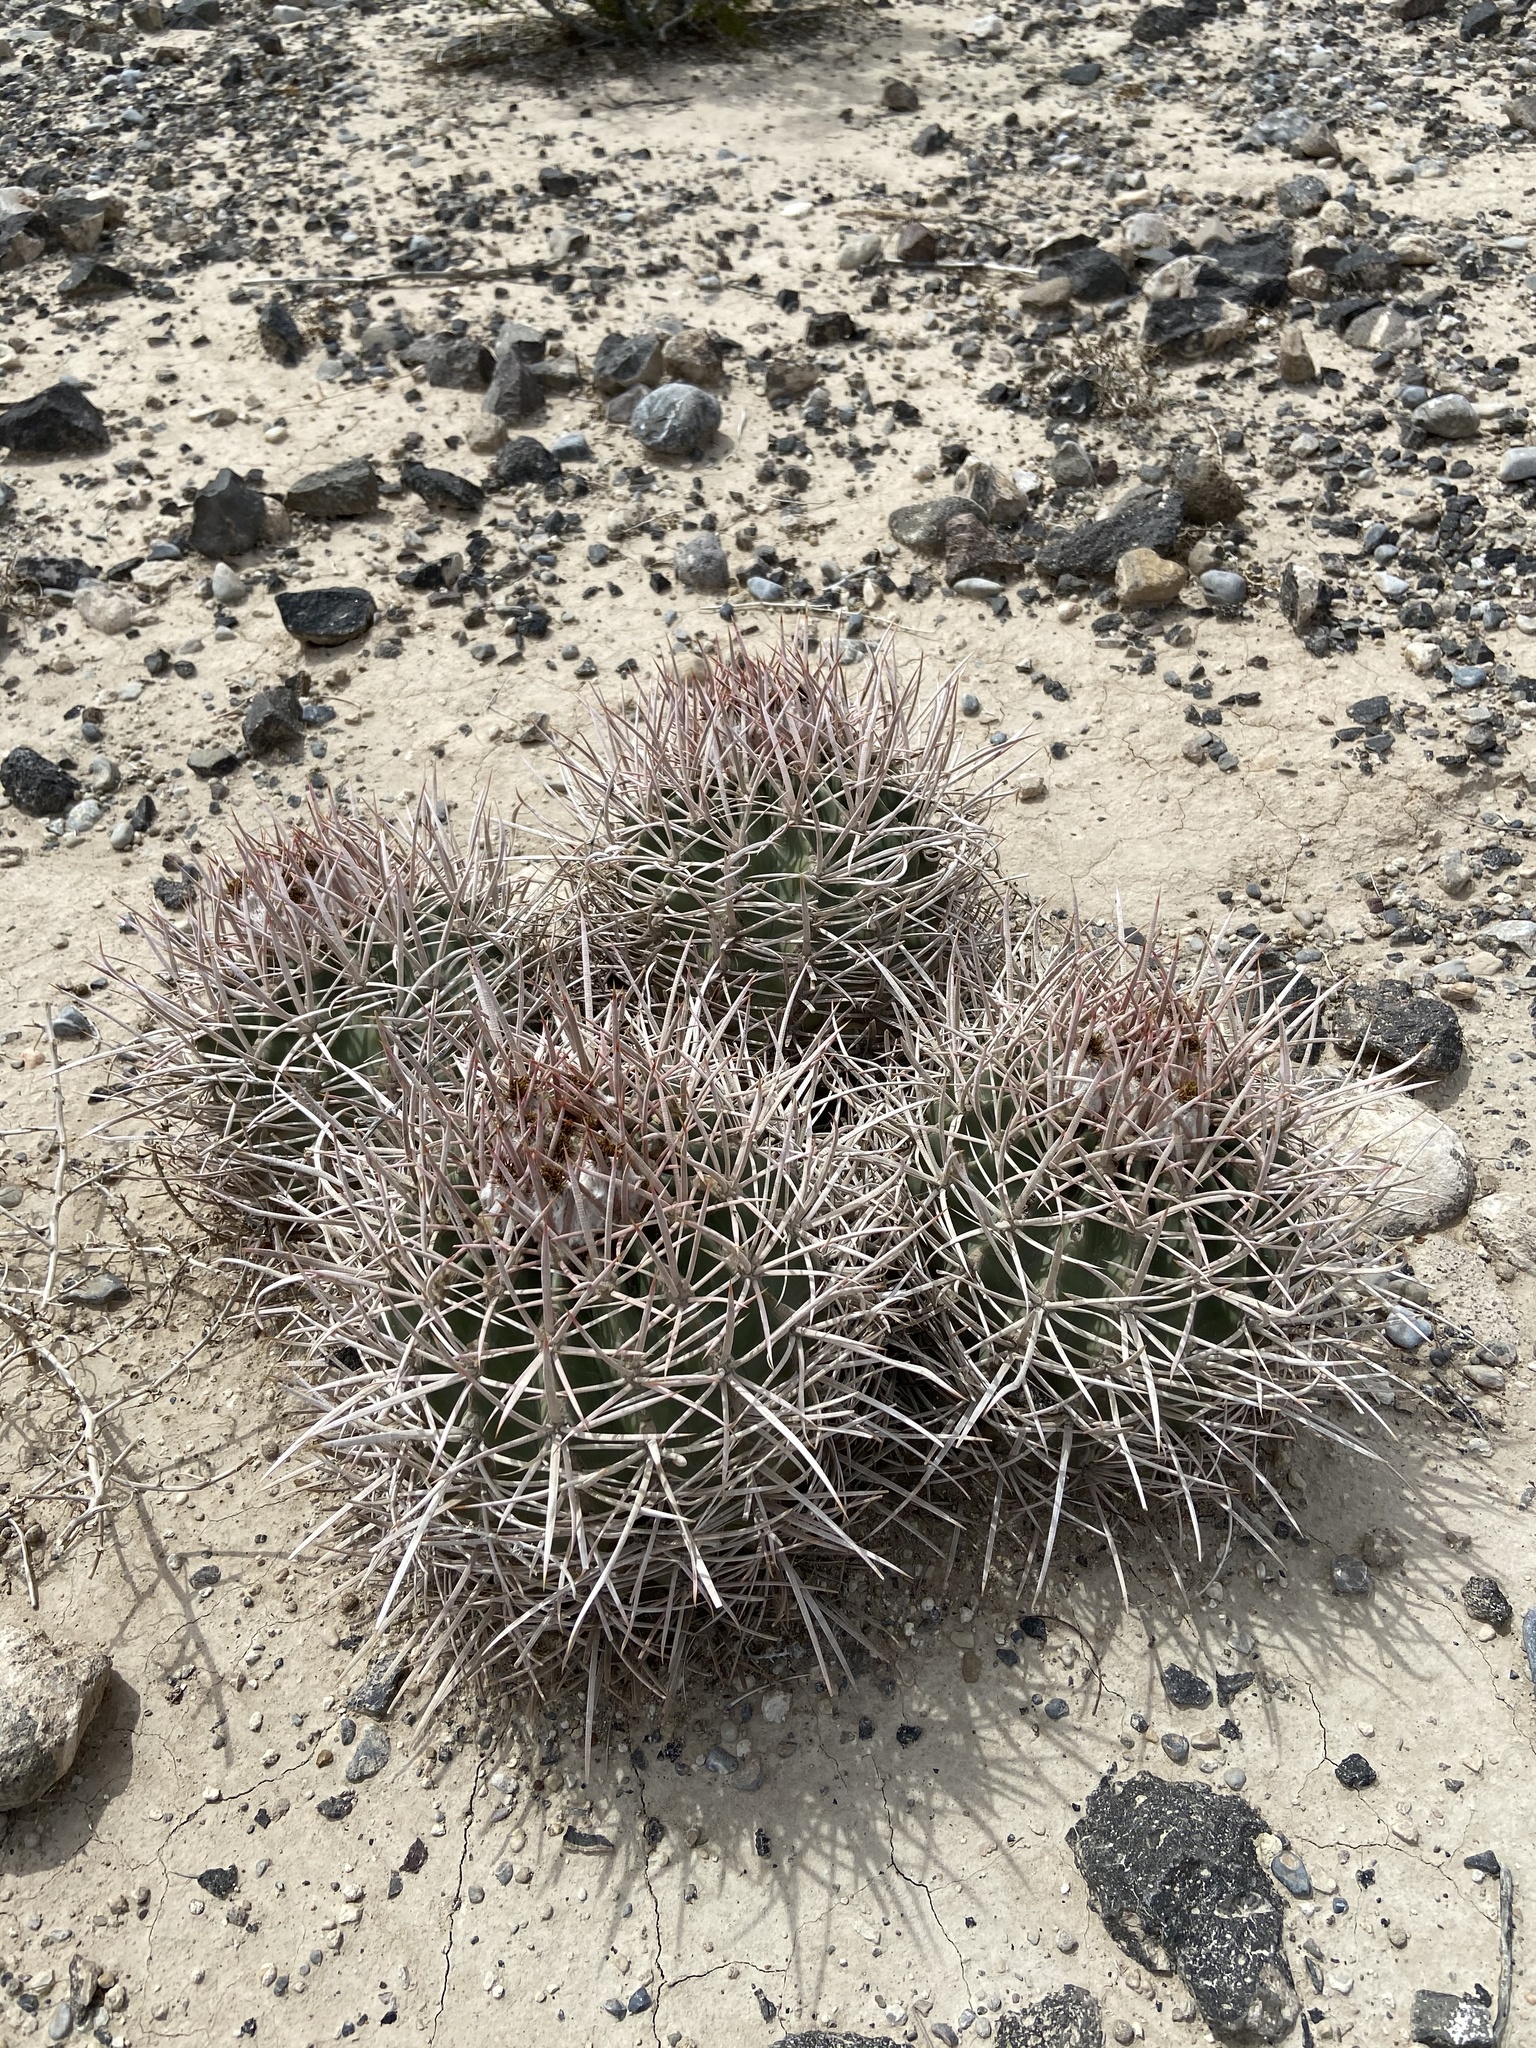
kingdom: Plantae
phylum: Tracheophyta
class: Magnoliopsida
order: Caryophyllales
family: Cactaceae
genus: Echinocactus
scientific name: Echinocactus polycephalus
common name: Cottontop cactus
